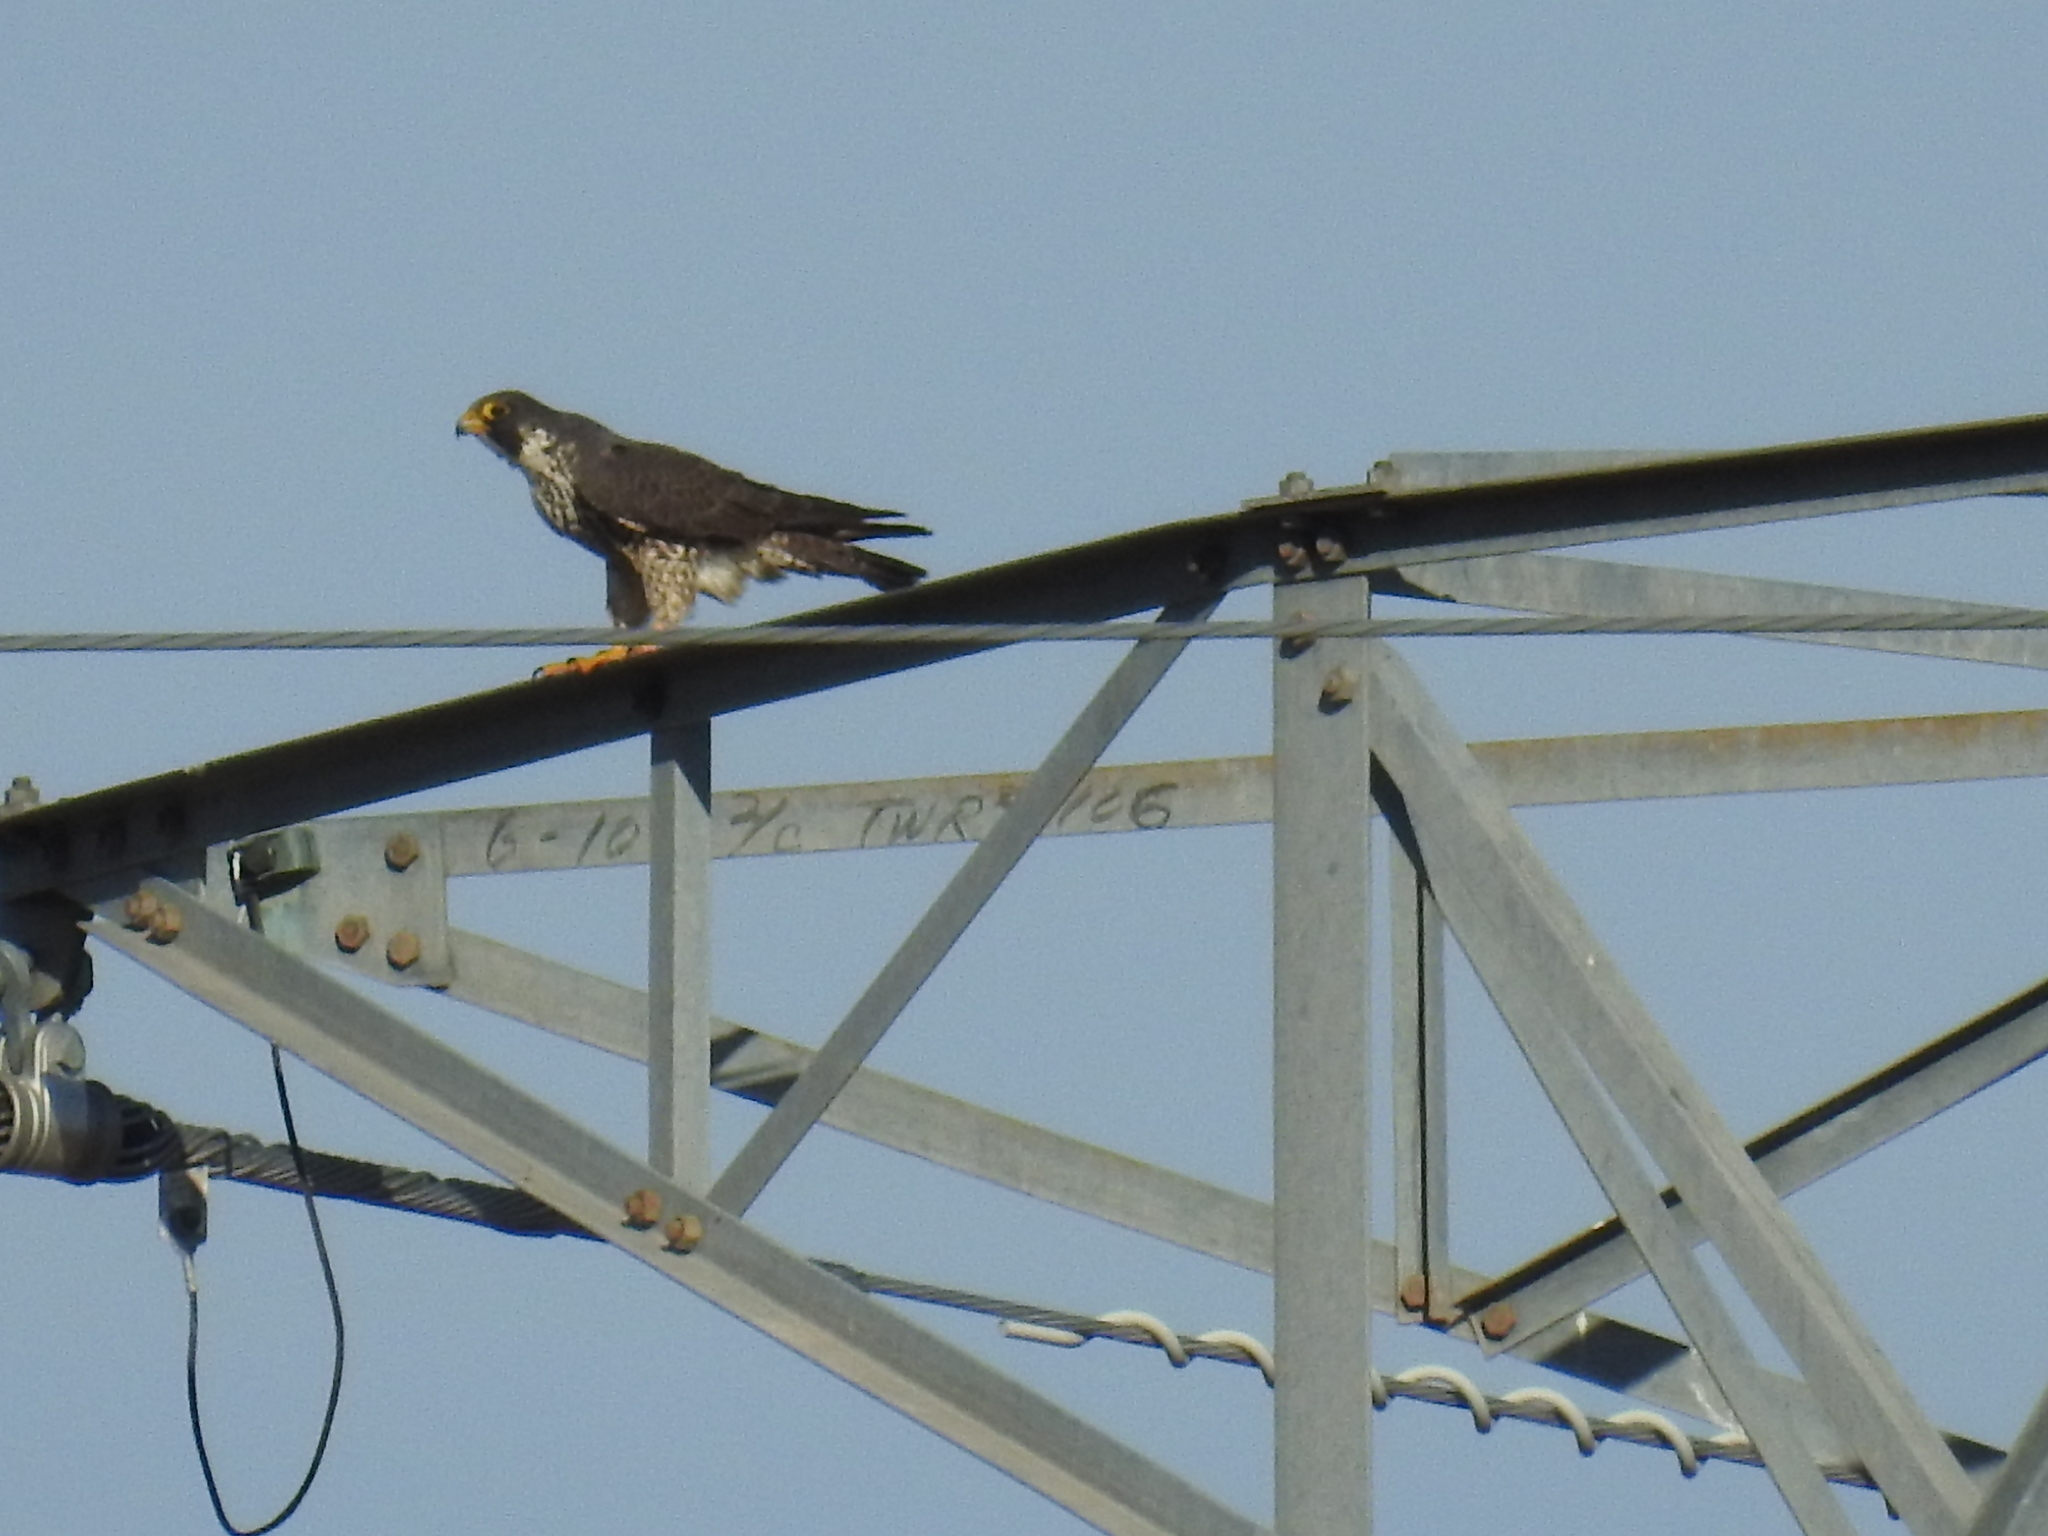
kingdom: Animalia
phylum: Chordata
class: Aves
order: Falconiformes
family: Falconidae
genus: Falco
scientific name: Falco peregrinus
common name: Peregrine falcon
